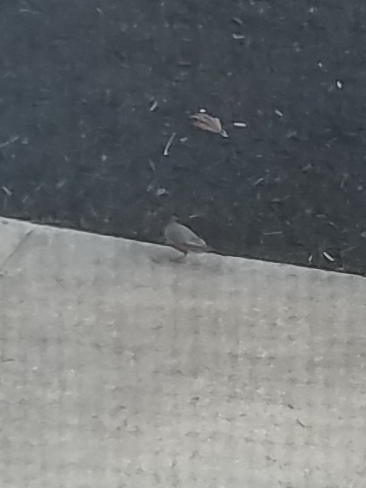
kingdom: Animalia
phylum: Chordata
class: Aves
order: Passeriformes
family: Turdidae
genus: Turdus
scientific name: Turdus migratorius
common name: American robin
